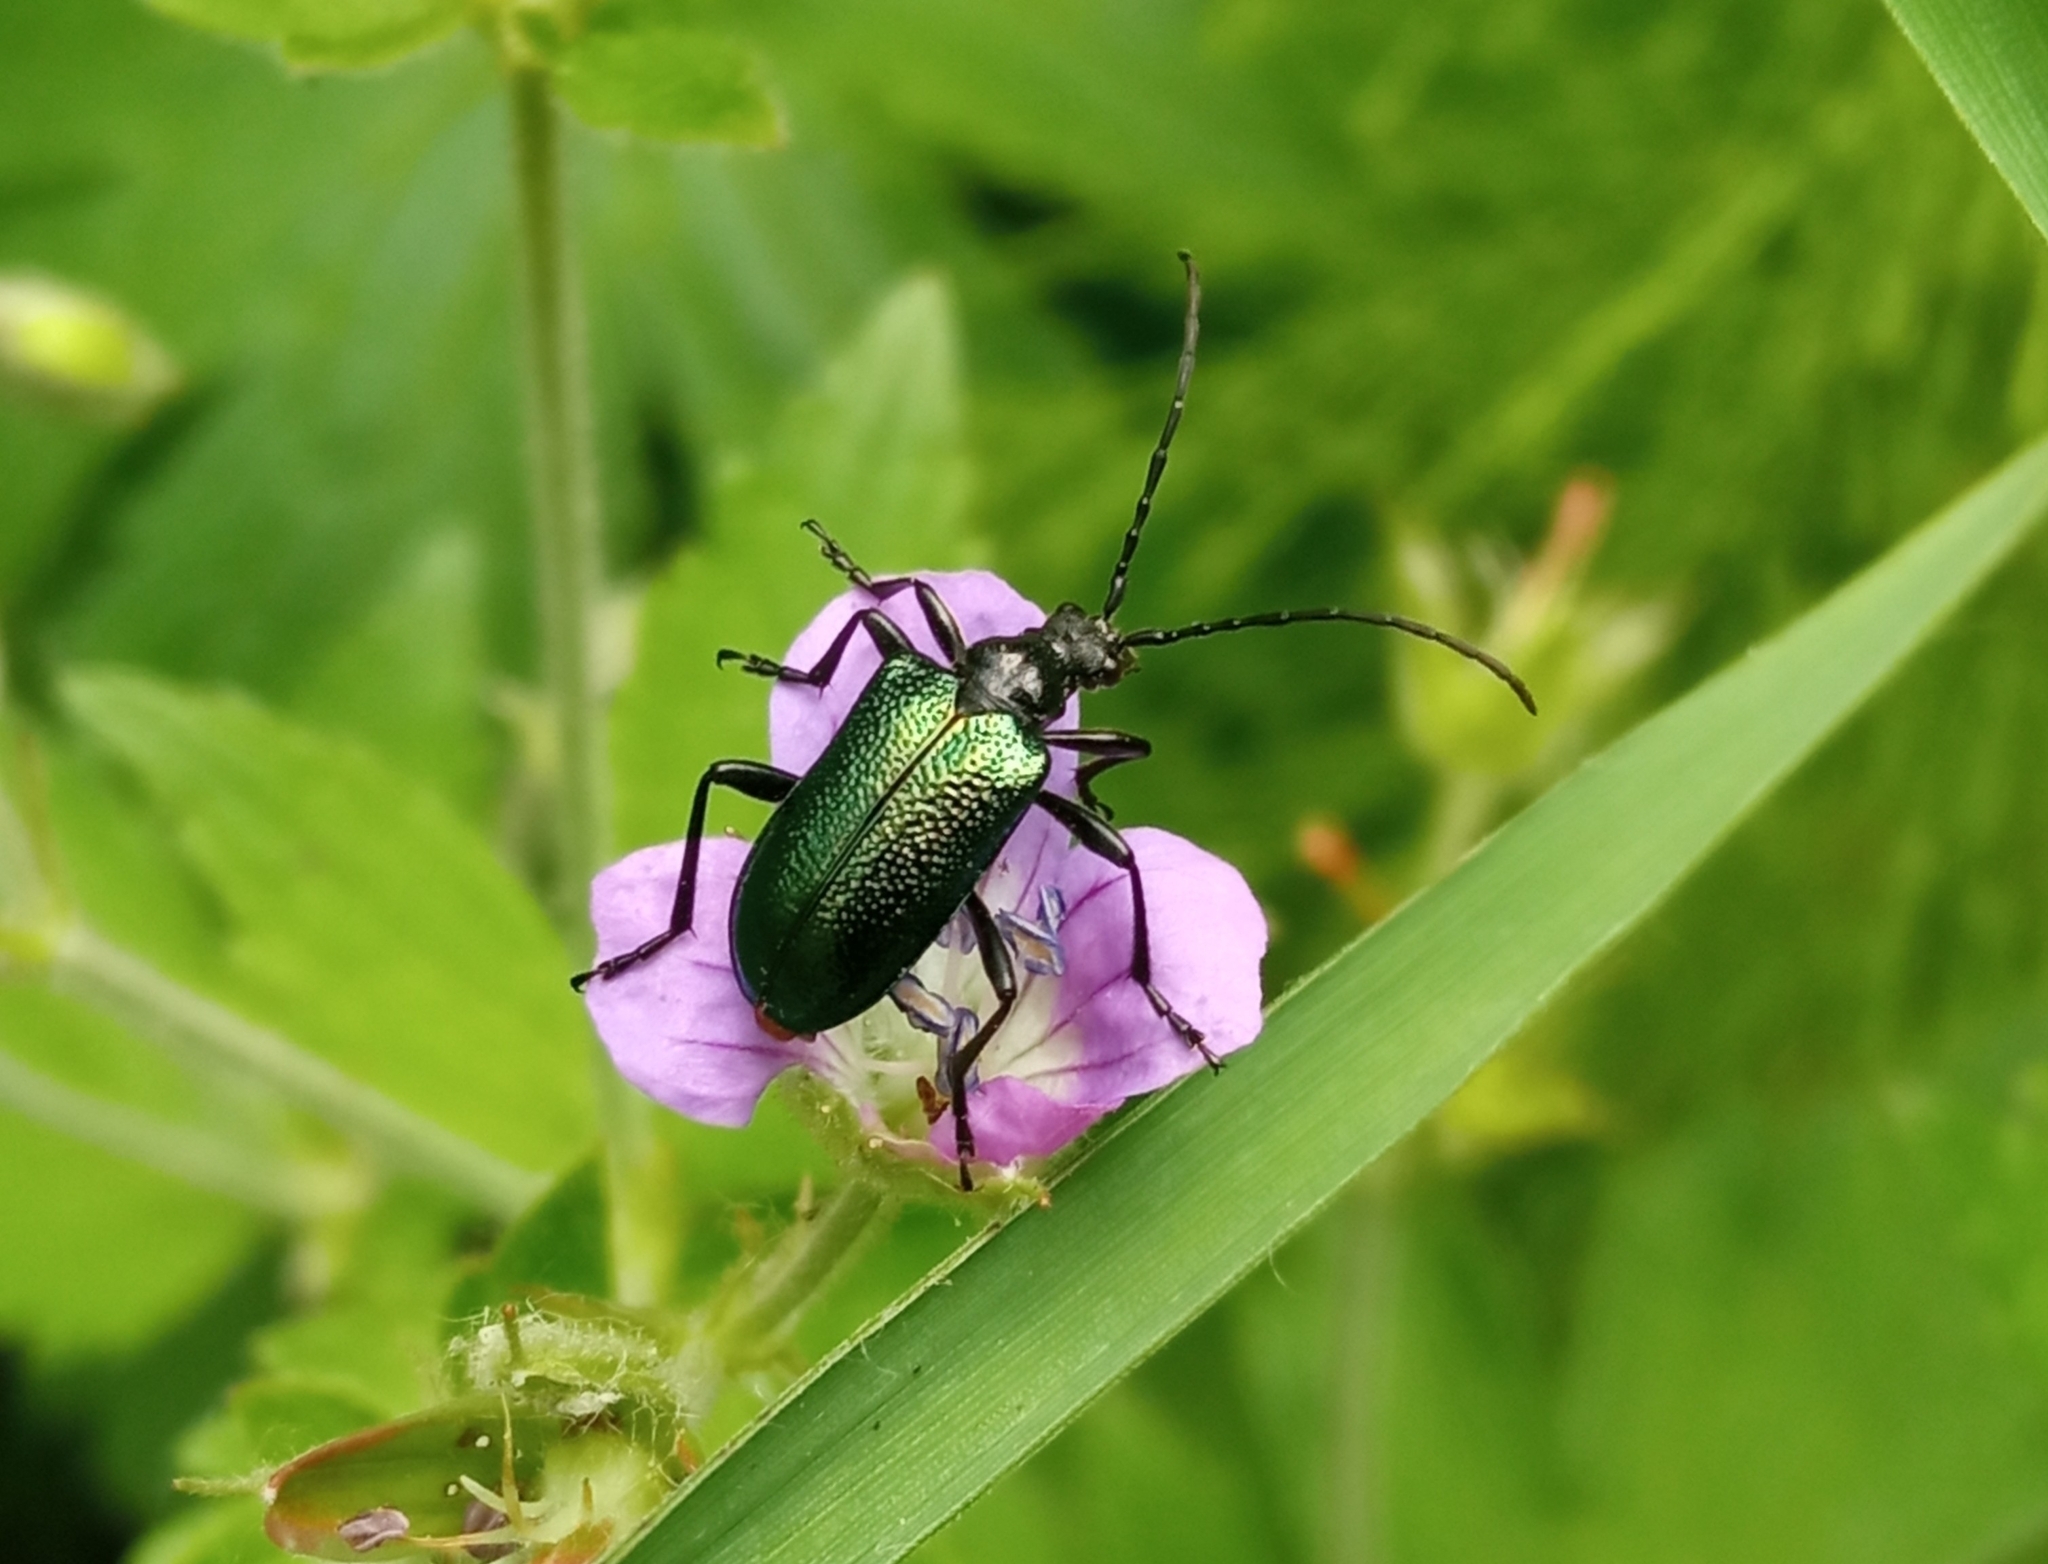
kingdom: Animalia
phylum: Arthropoda
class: Insecta
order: Coleoptera
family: Cerambycidae
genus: Gaurotes
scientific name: Gaurotes virginea
